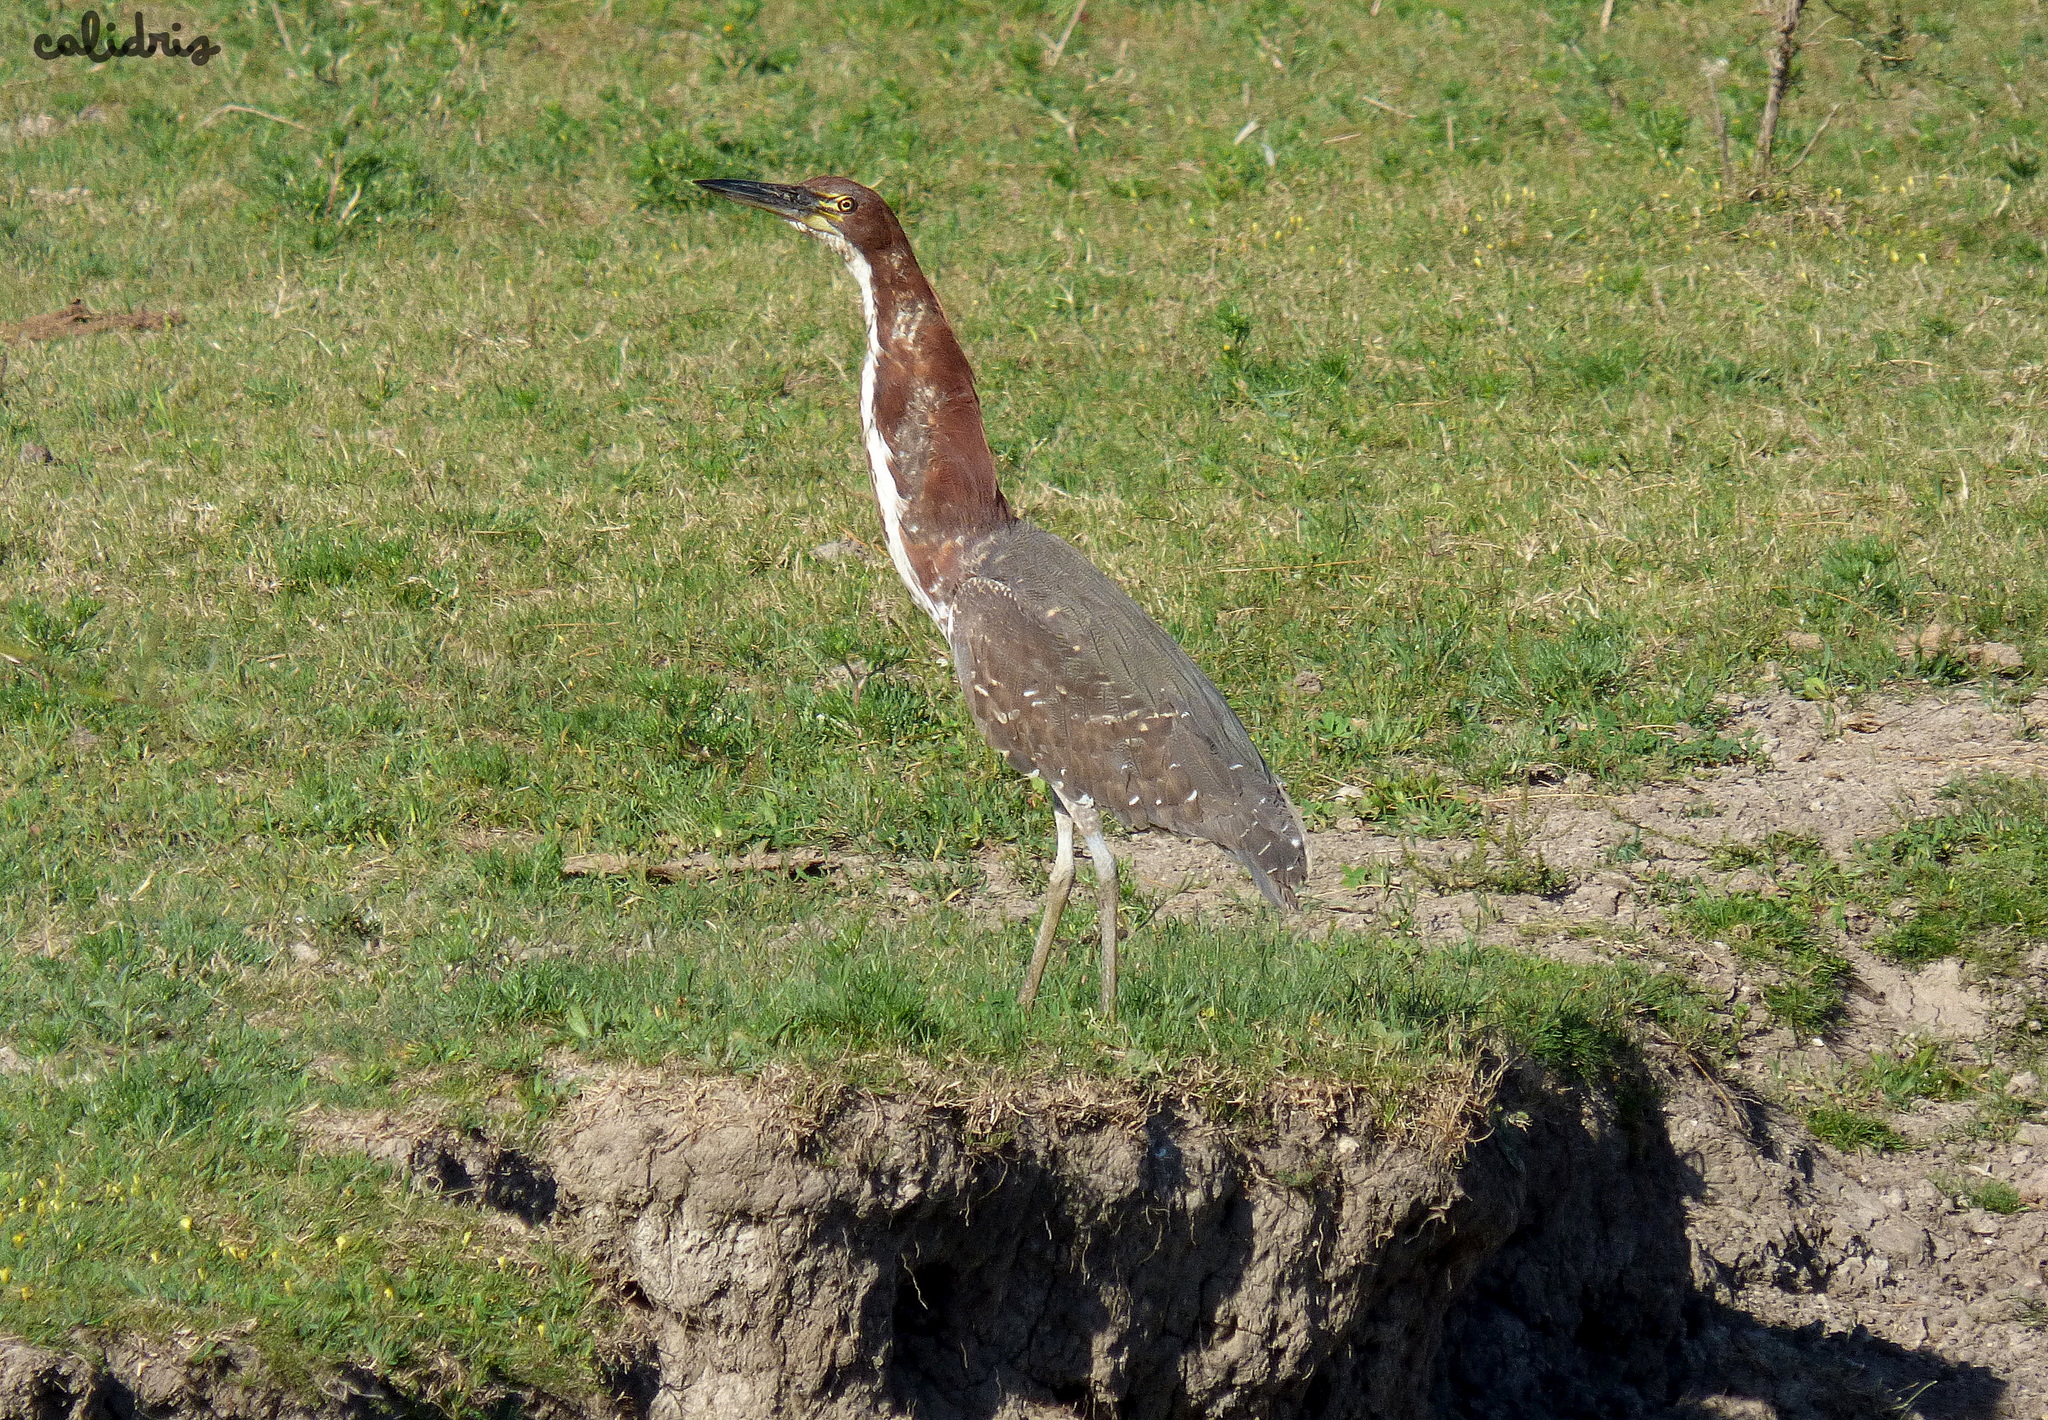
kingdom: Animalia
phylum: Chordata
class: Aves
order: Pelecaniformes
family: Ardeidae
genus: Tigrisoma
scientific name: Tigrisoma lineatum
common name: Rufescent tiger-heron
